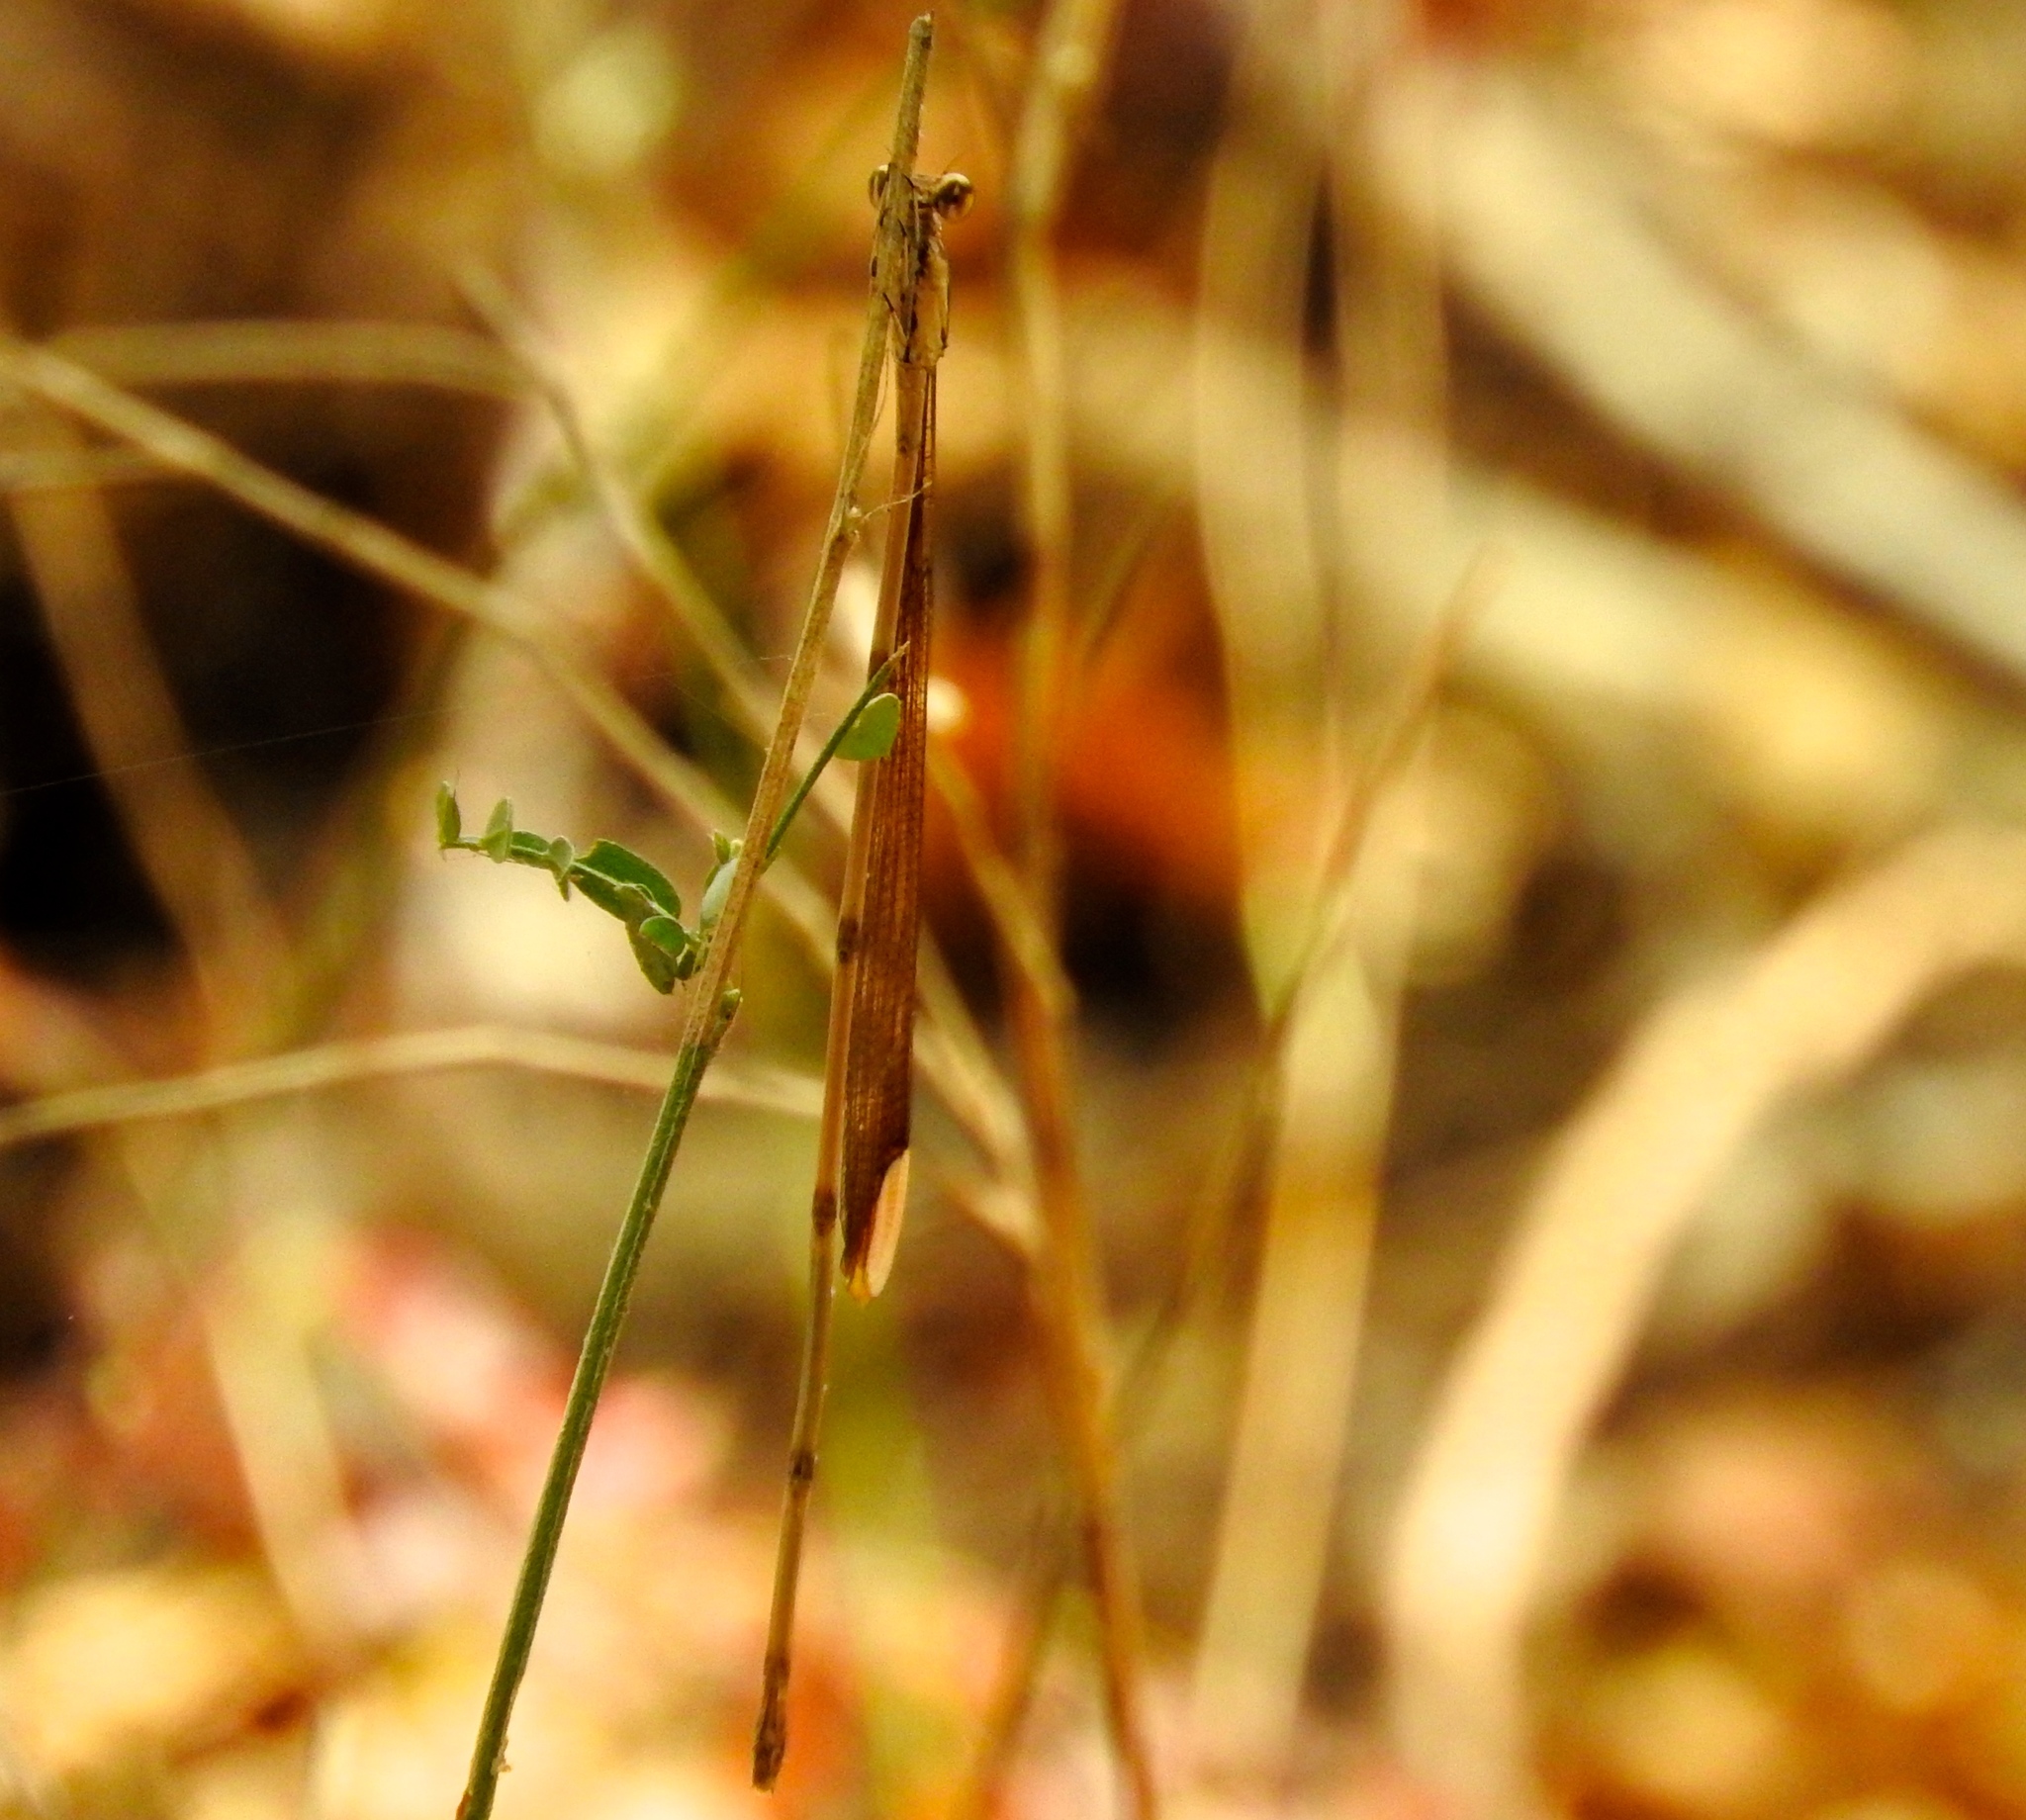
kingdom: Animalia
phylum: Arthropoda
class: Insecta
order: Odonata
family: Coenagrionidae
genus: Mecistogaster
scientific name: Mecistogaster ornata
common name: Ornate helicopter
